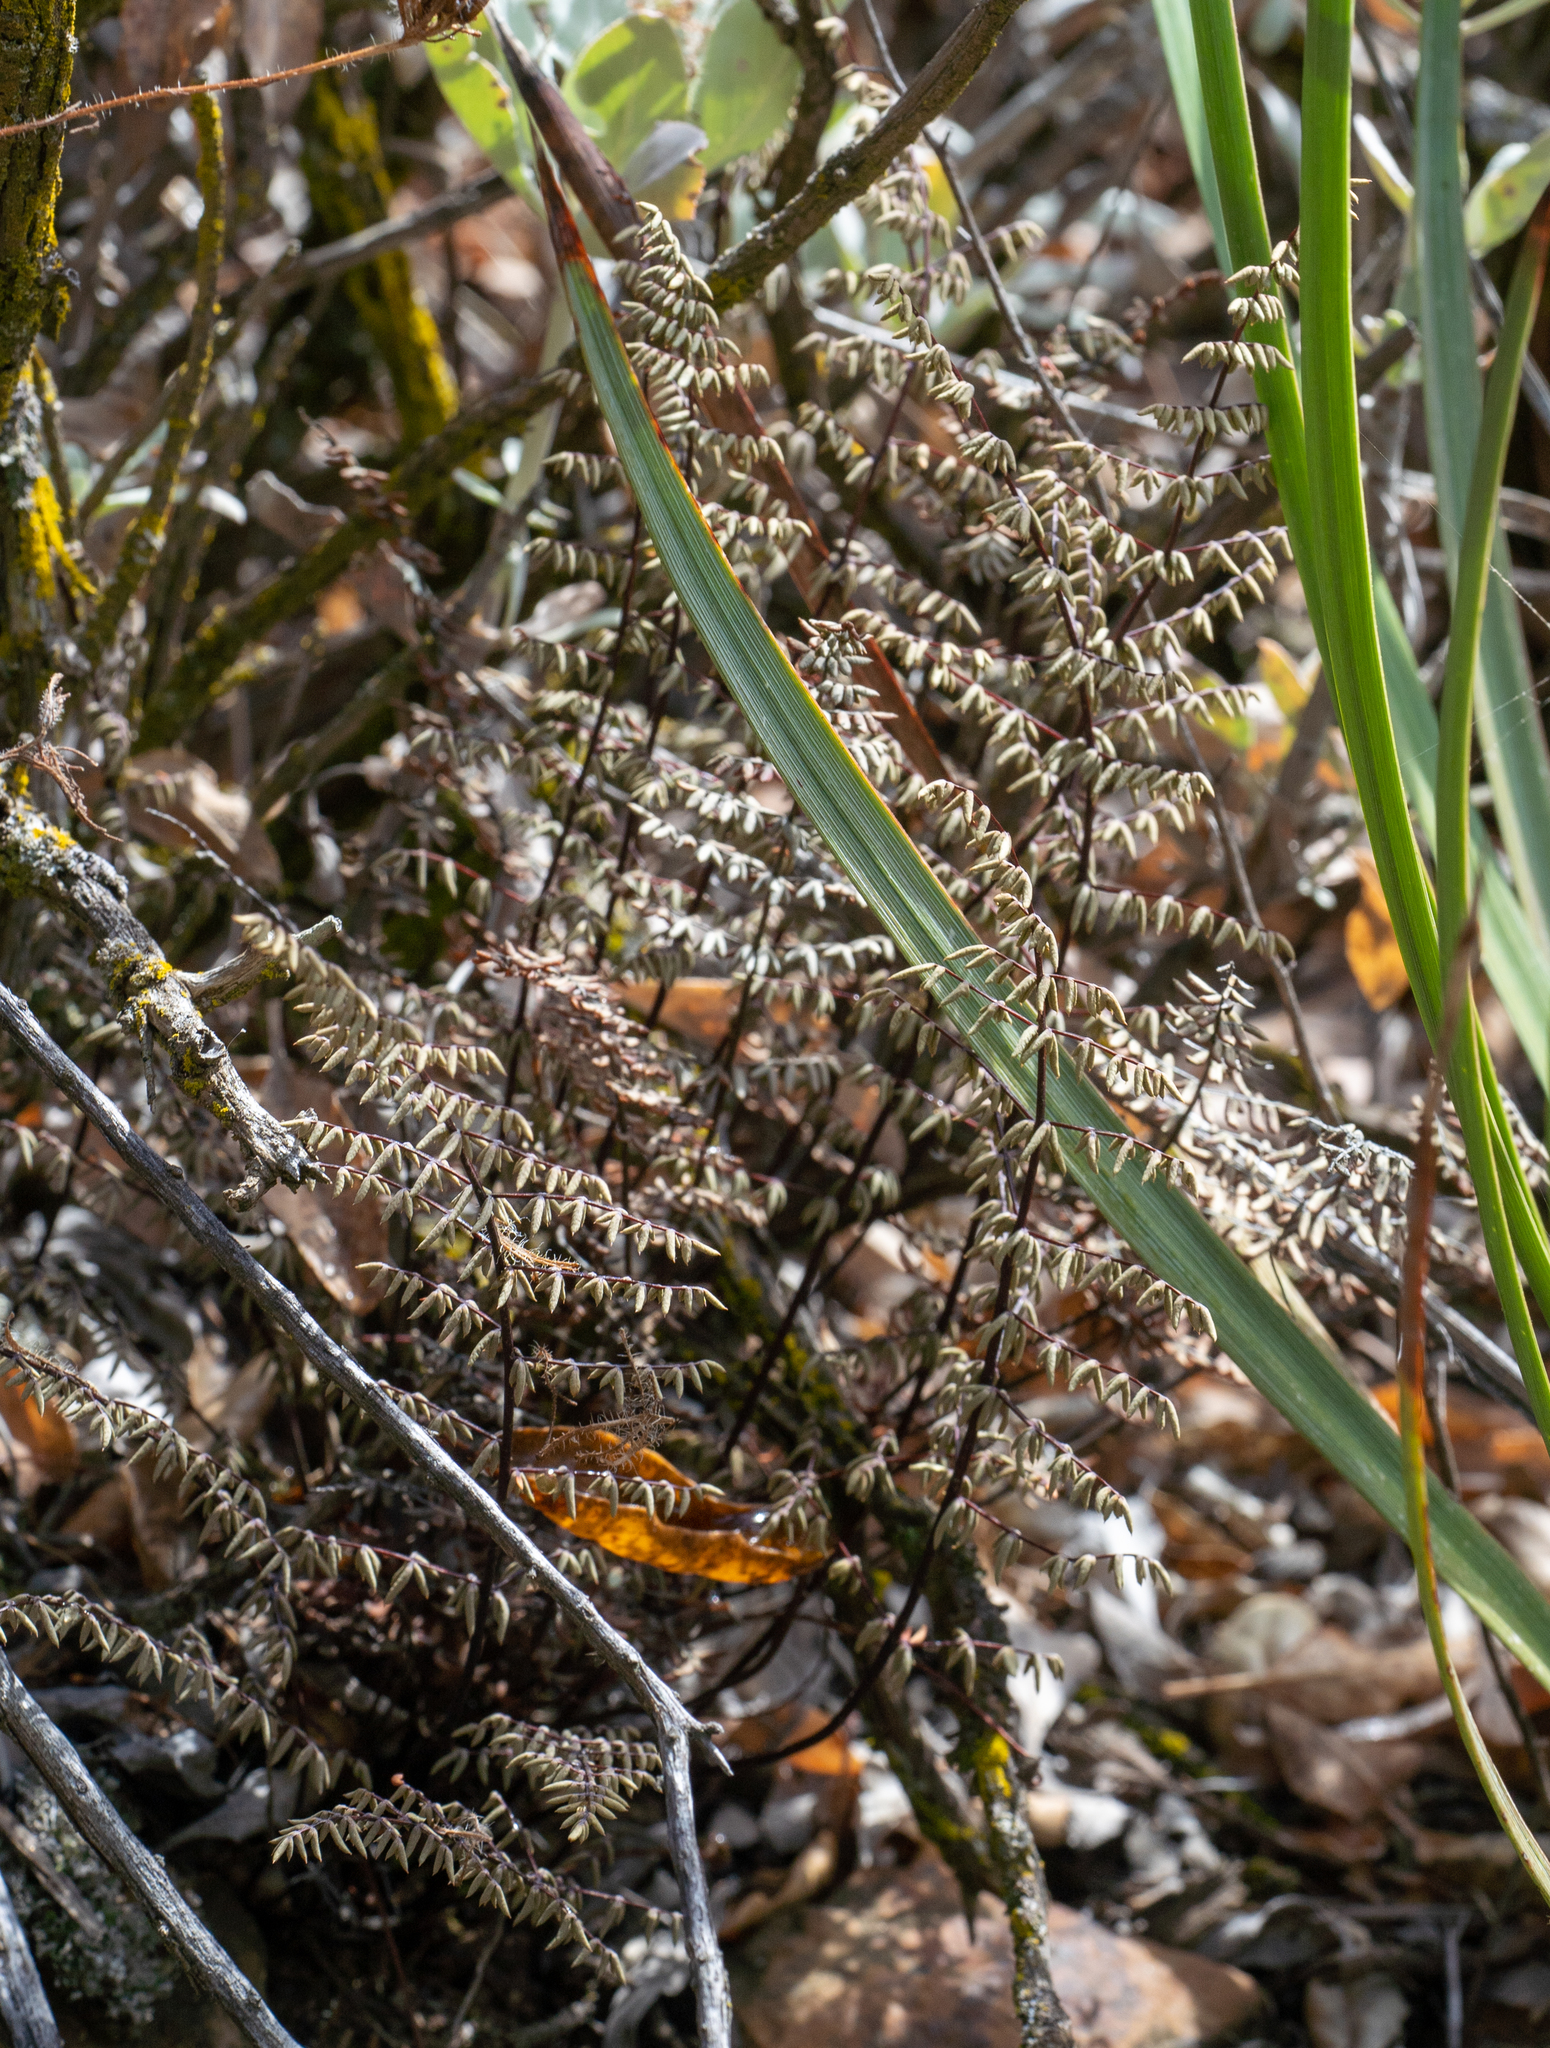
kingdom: Plantae
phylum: Tracheophyta
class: Polypodiopsida
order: Polypodiales
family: Pteridaceae
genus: Pellaea
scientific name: Pellaea mucronata
